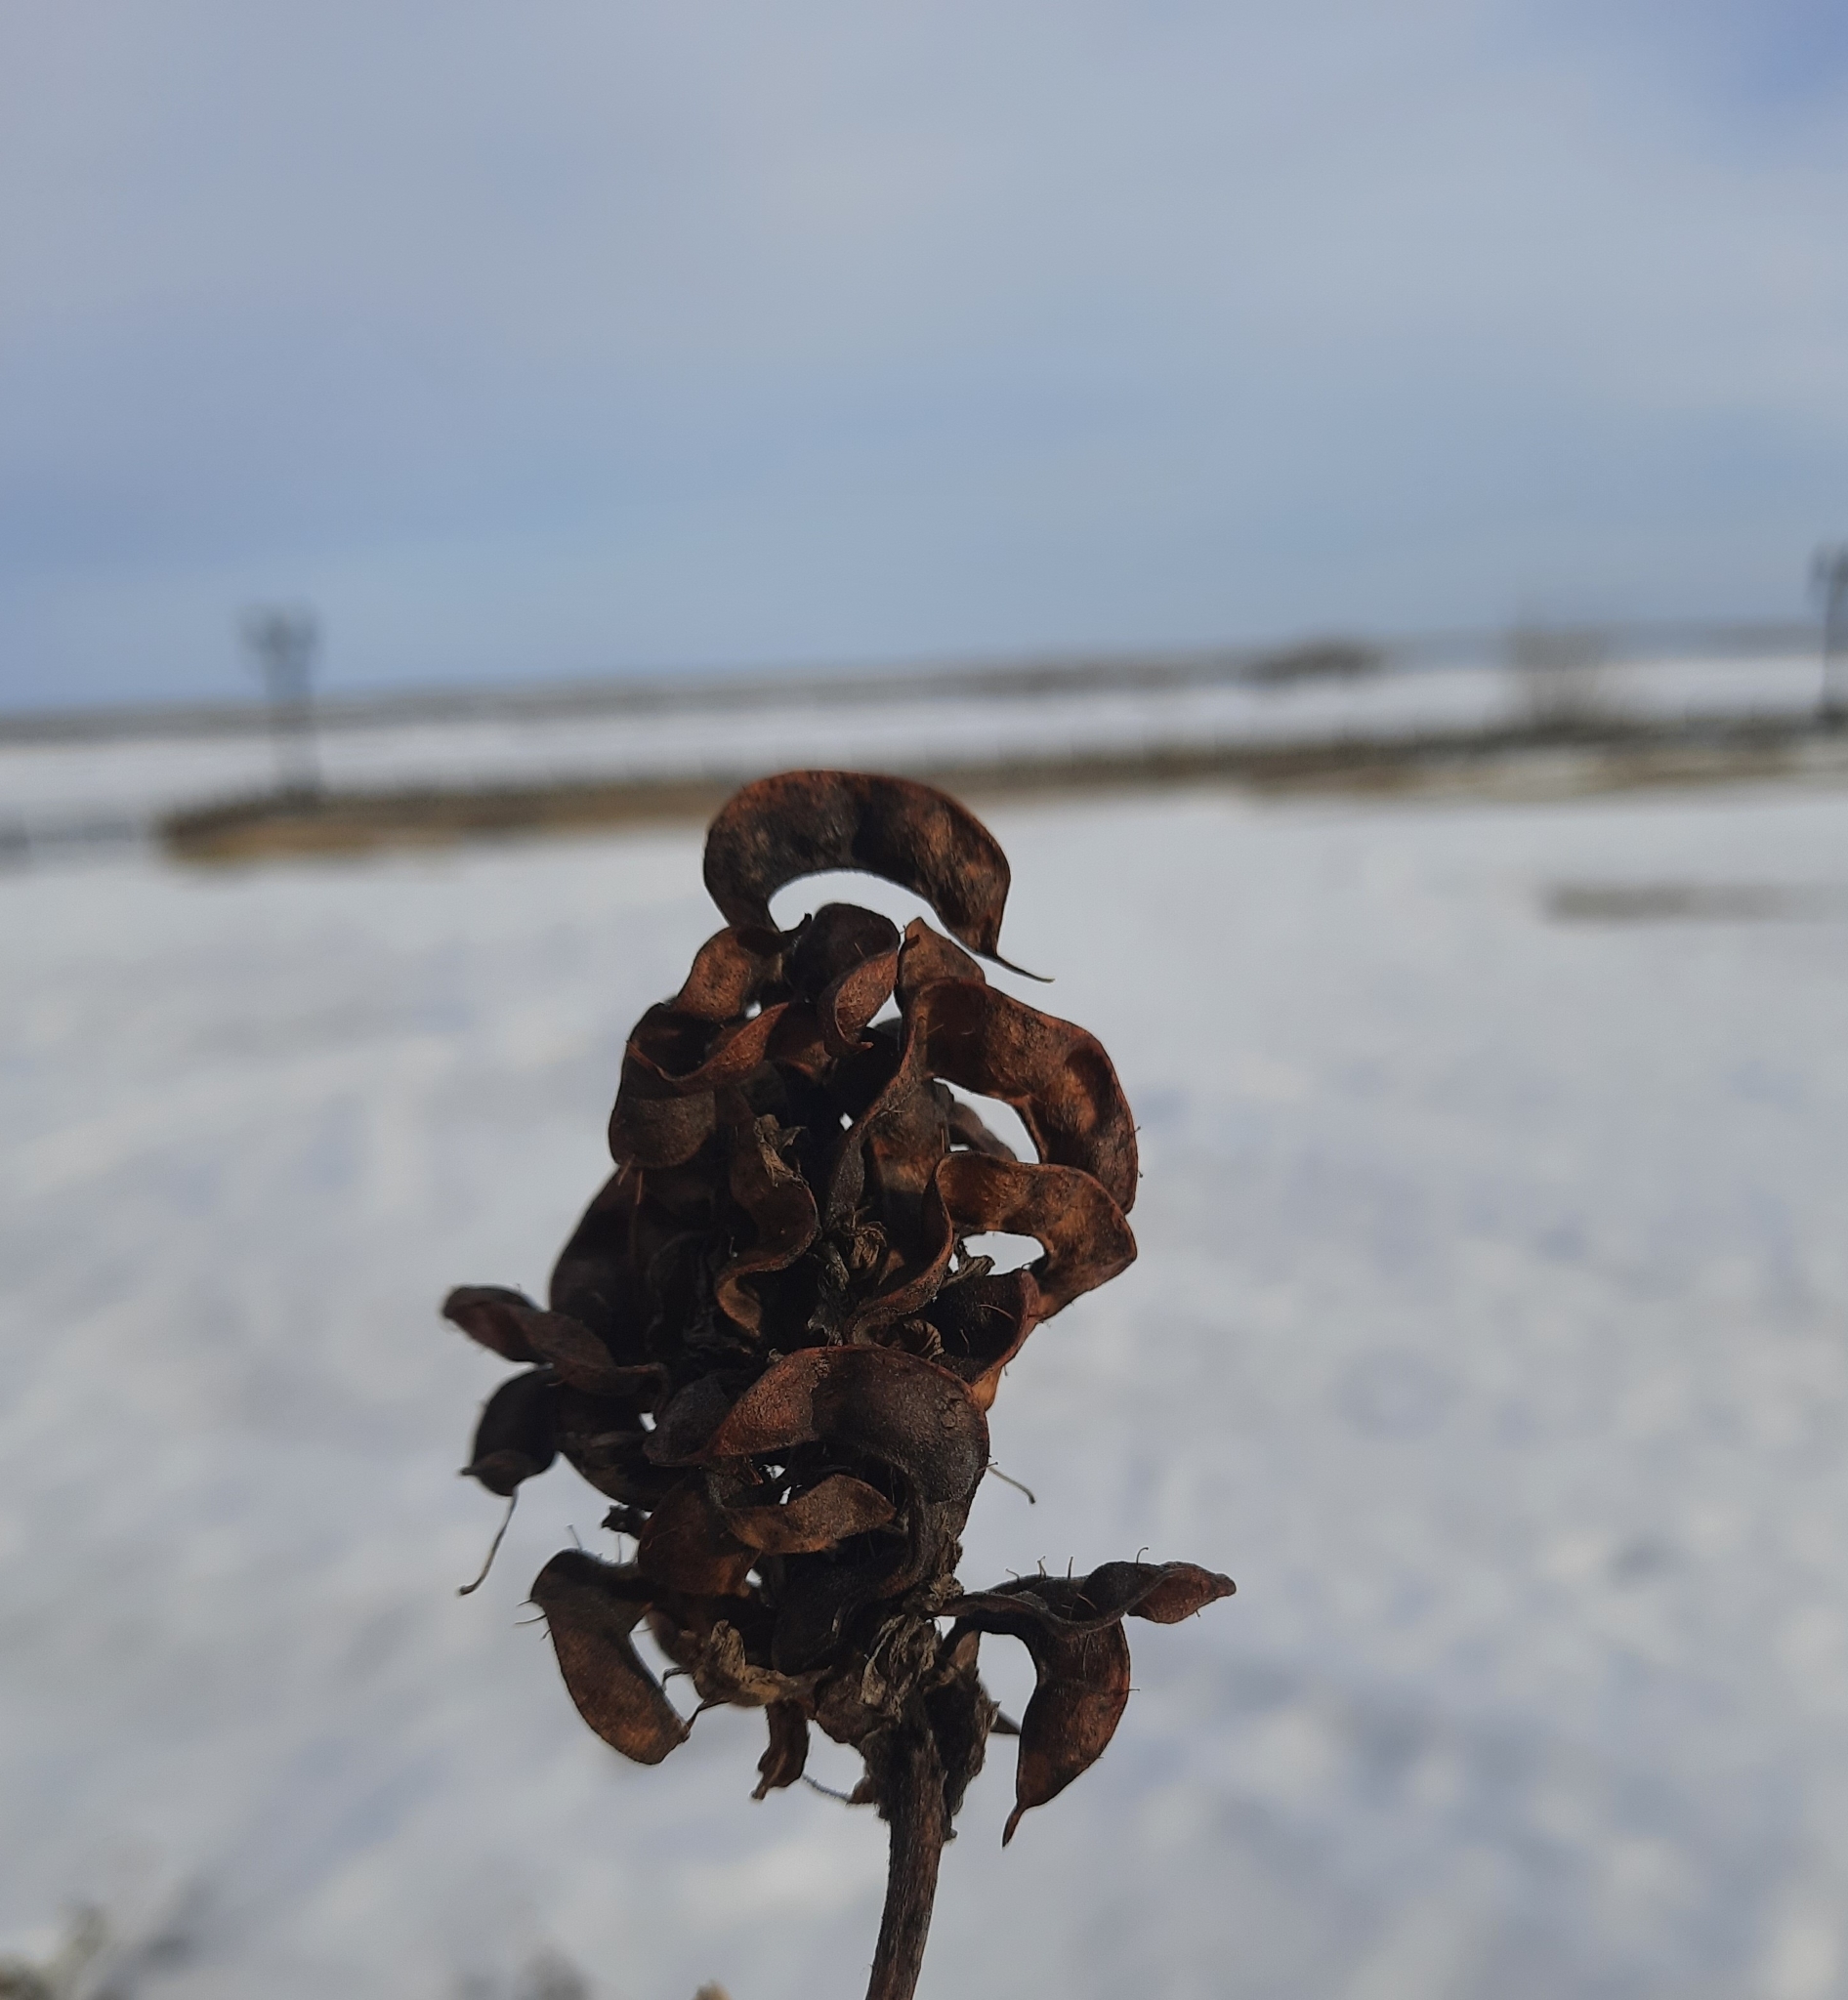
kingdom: Plantae
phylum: Tracheophyta
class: Magnoliopsida
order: Fabales
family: Fabaceae
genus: Glycyrrhiza
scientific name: Glycyrrhiza uralensis
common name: Chinese licorice
